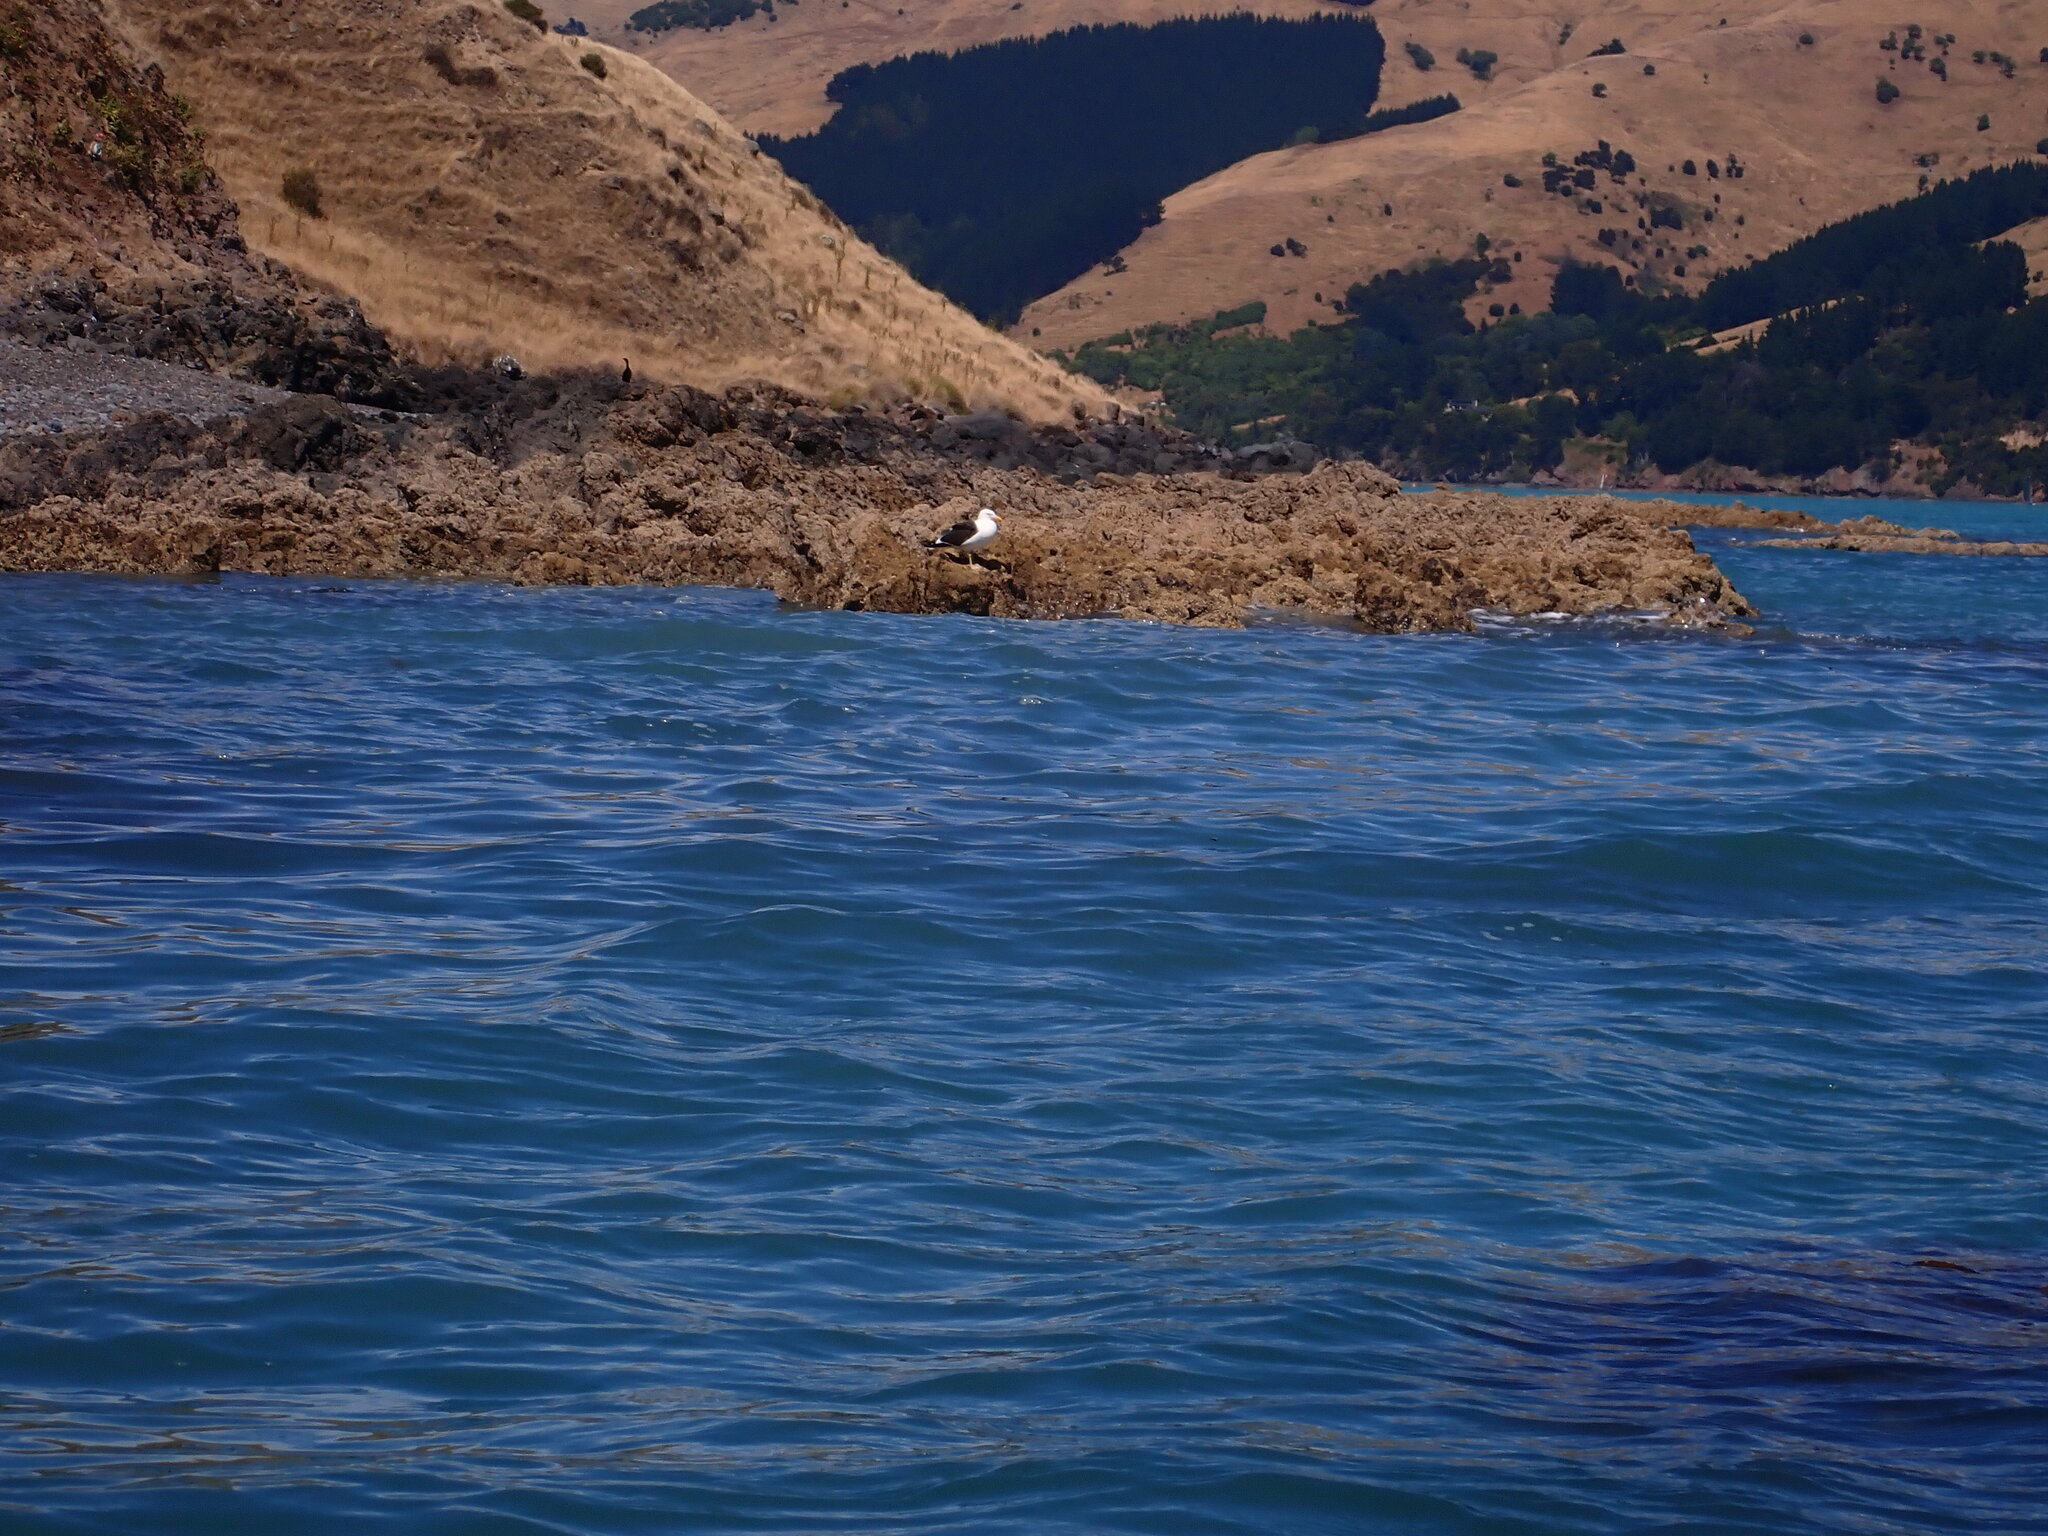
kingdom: Animalia
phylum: Chordata
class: Aves
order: Charadriiformes
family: Laridae
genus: Larus
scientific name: Larus dominicanus
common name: Kelp gull
